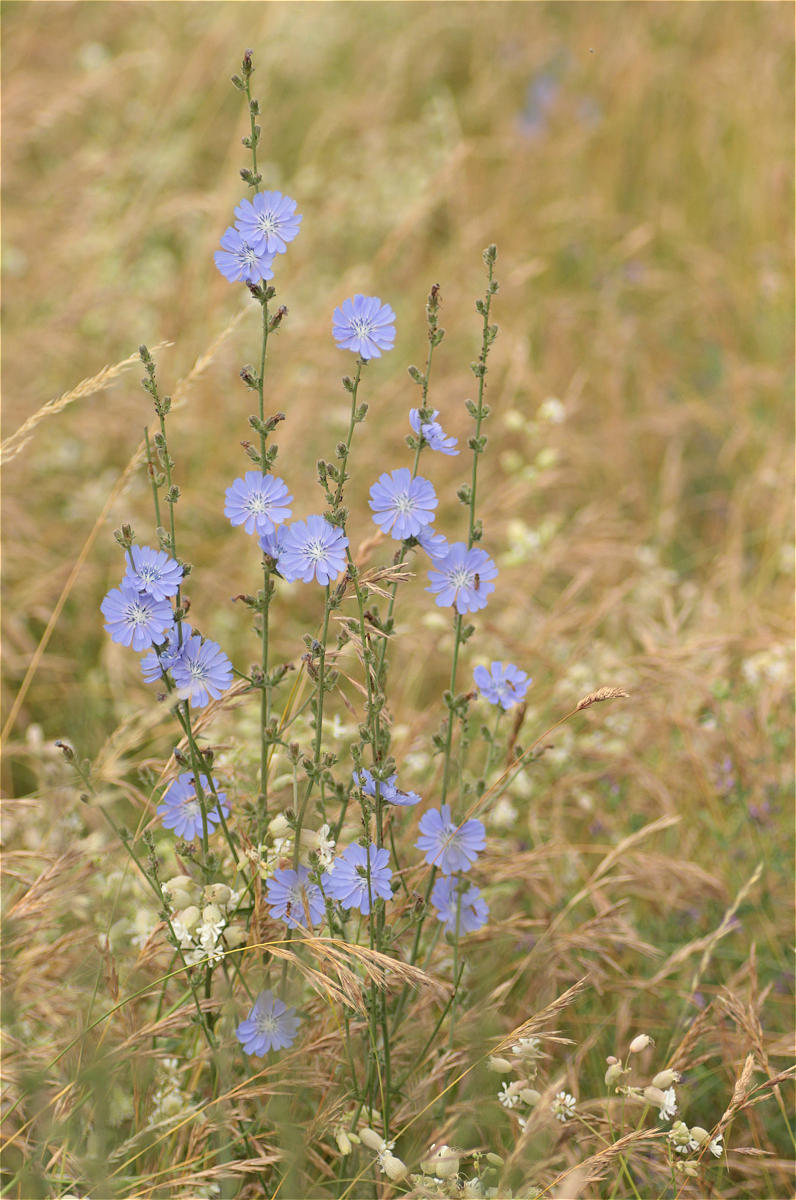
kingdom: Plantae
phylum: Tracheophyta
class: Magnoliopsida
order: Asterales
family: Asteraceae
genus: Cichorium
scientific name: Cichorium intybus
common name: Chicory
